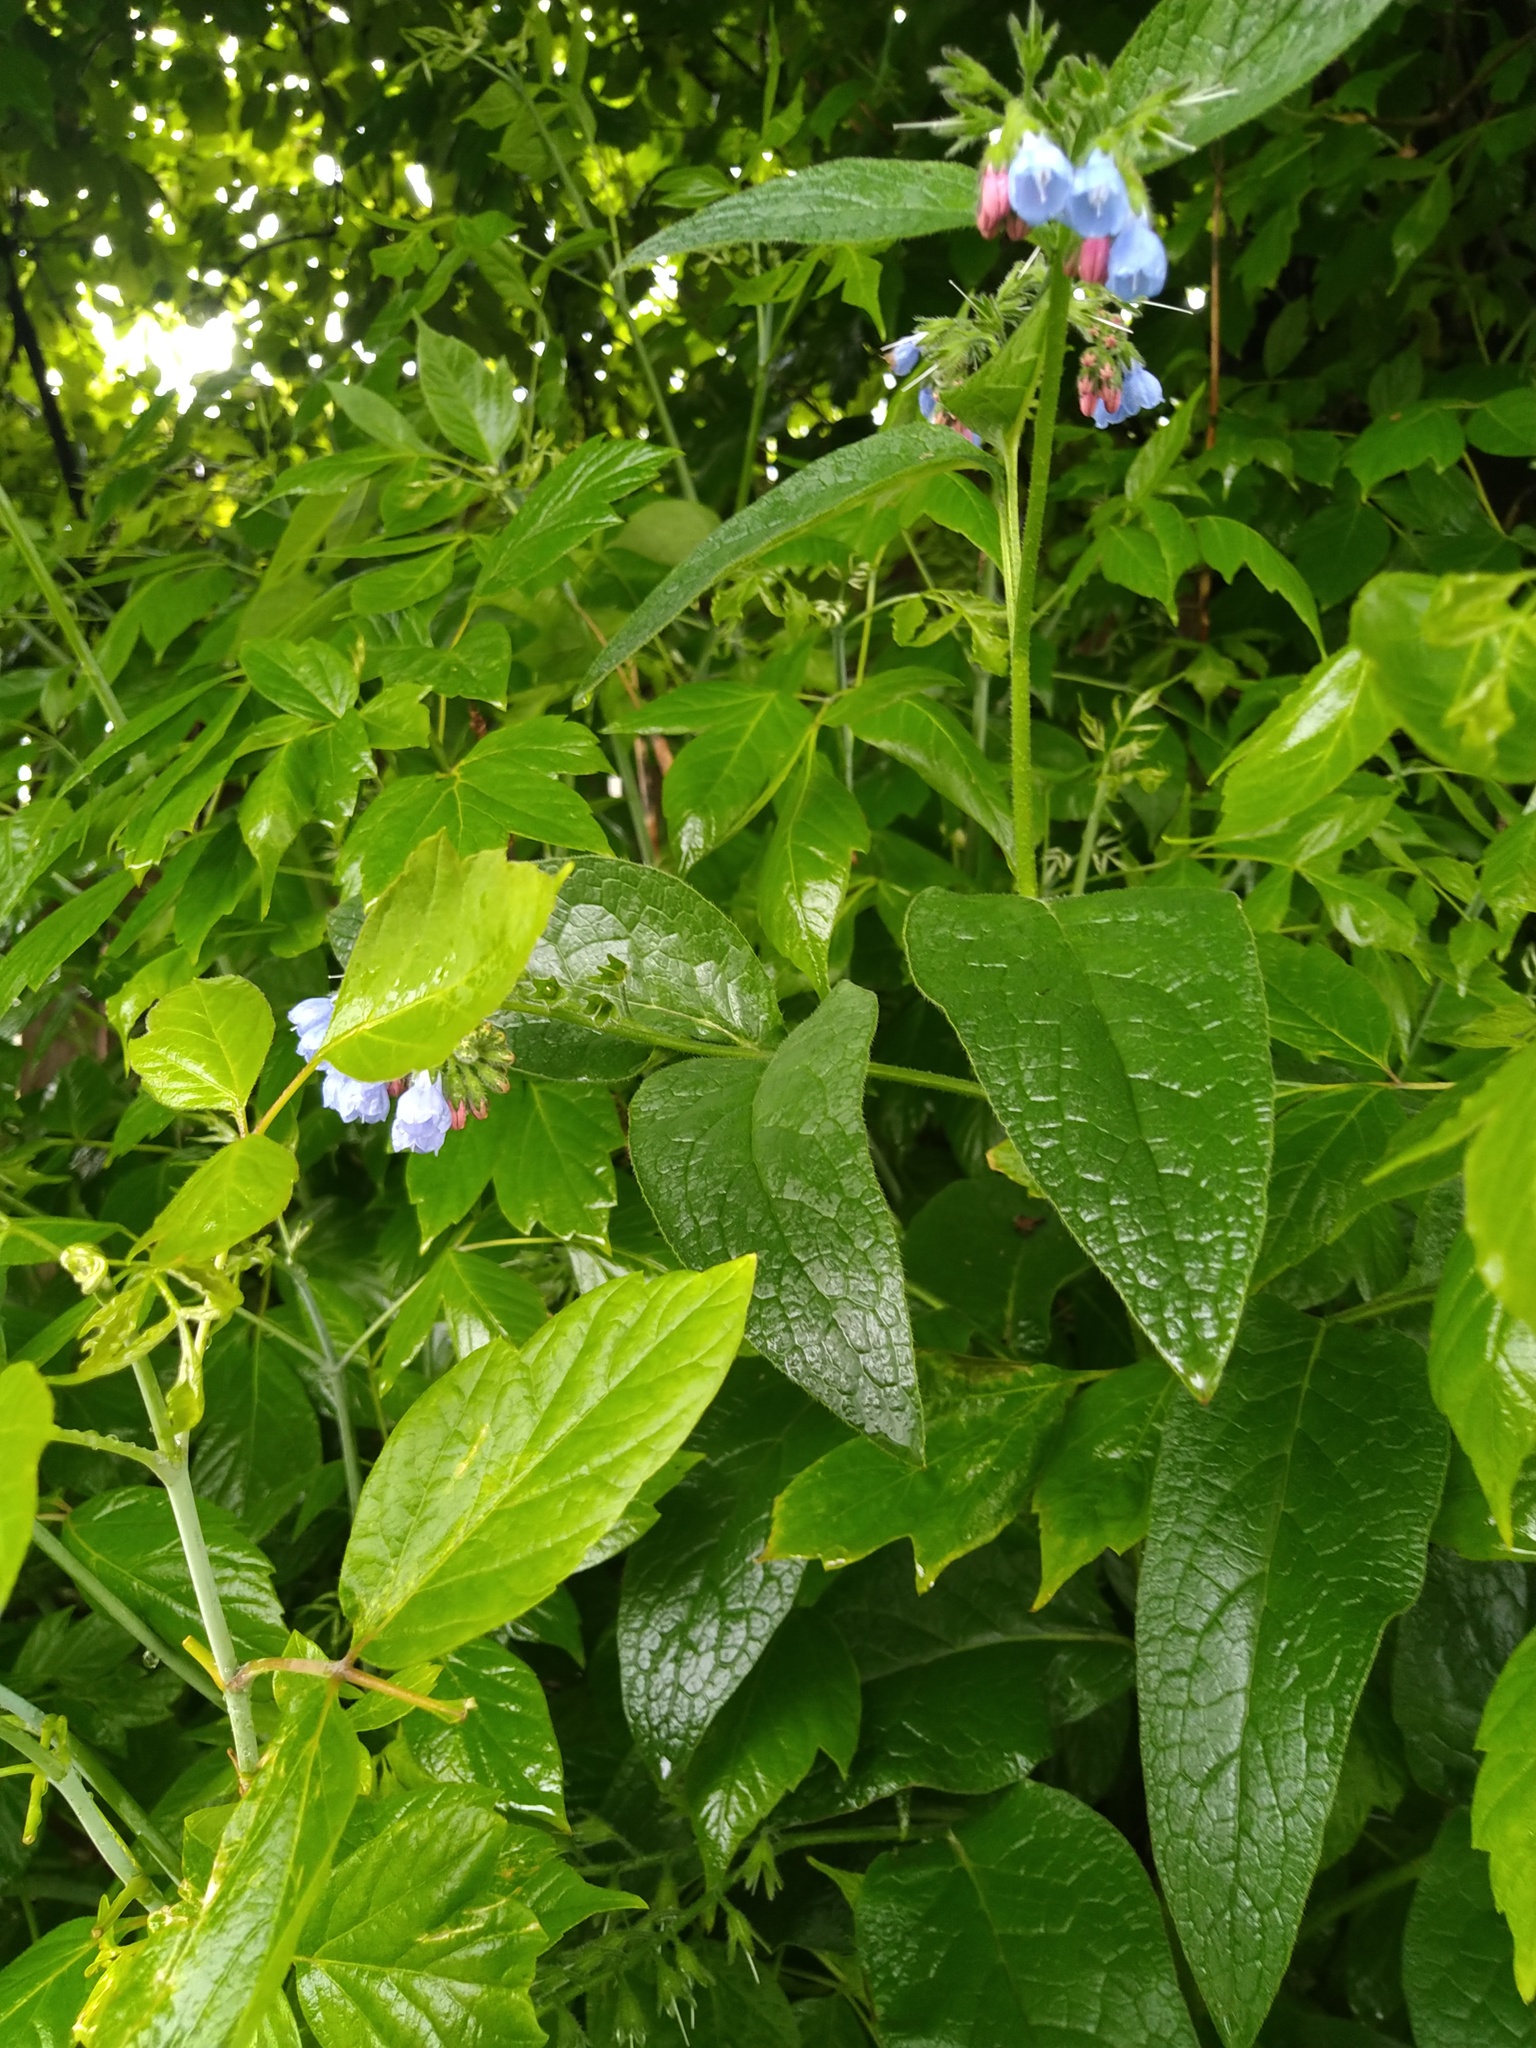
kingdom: Plantae
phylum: Tracheophyta
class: Magnoliopsida
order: Boraginales
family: Boraginaceae
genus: Symphytum
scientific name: Symphytum caucasicum
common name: Caucasian comfrey
